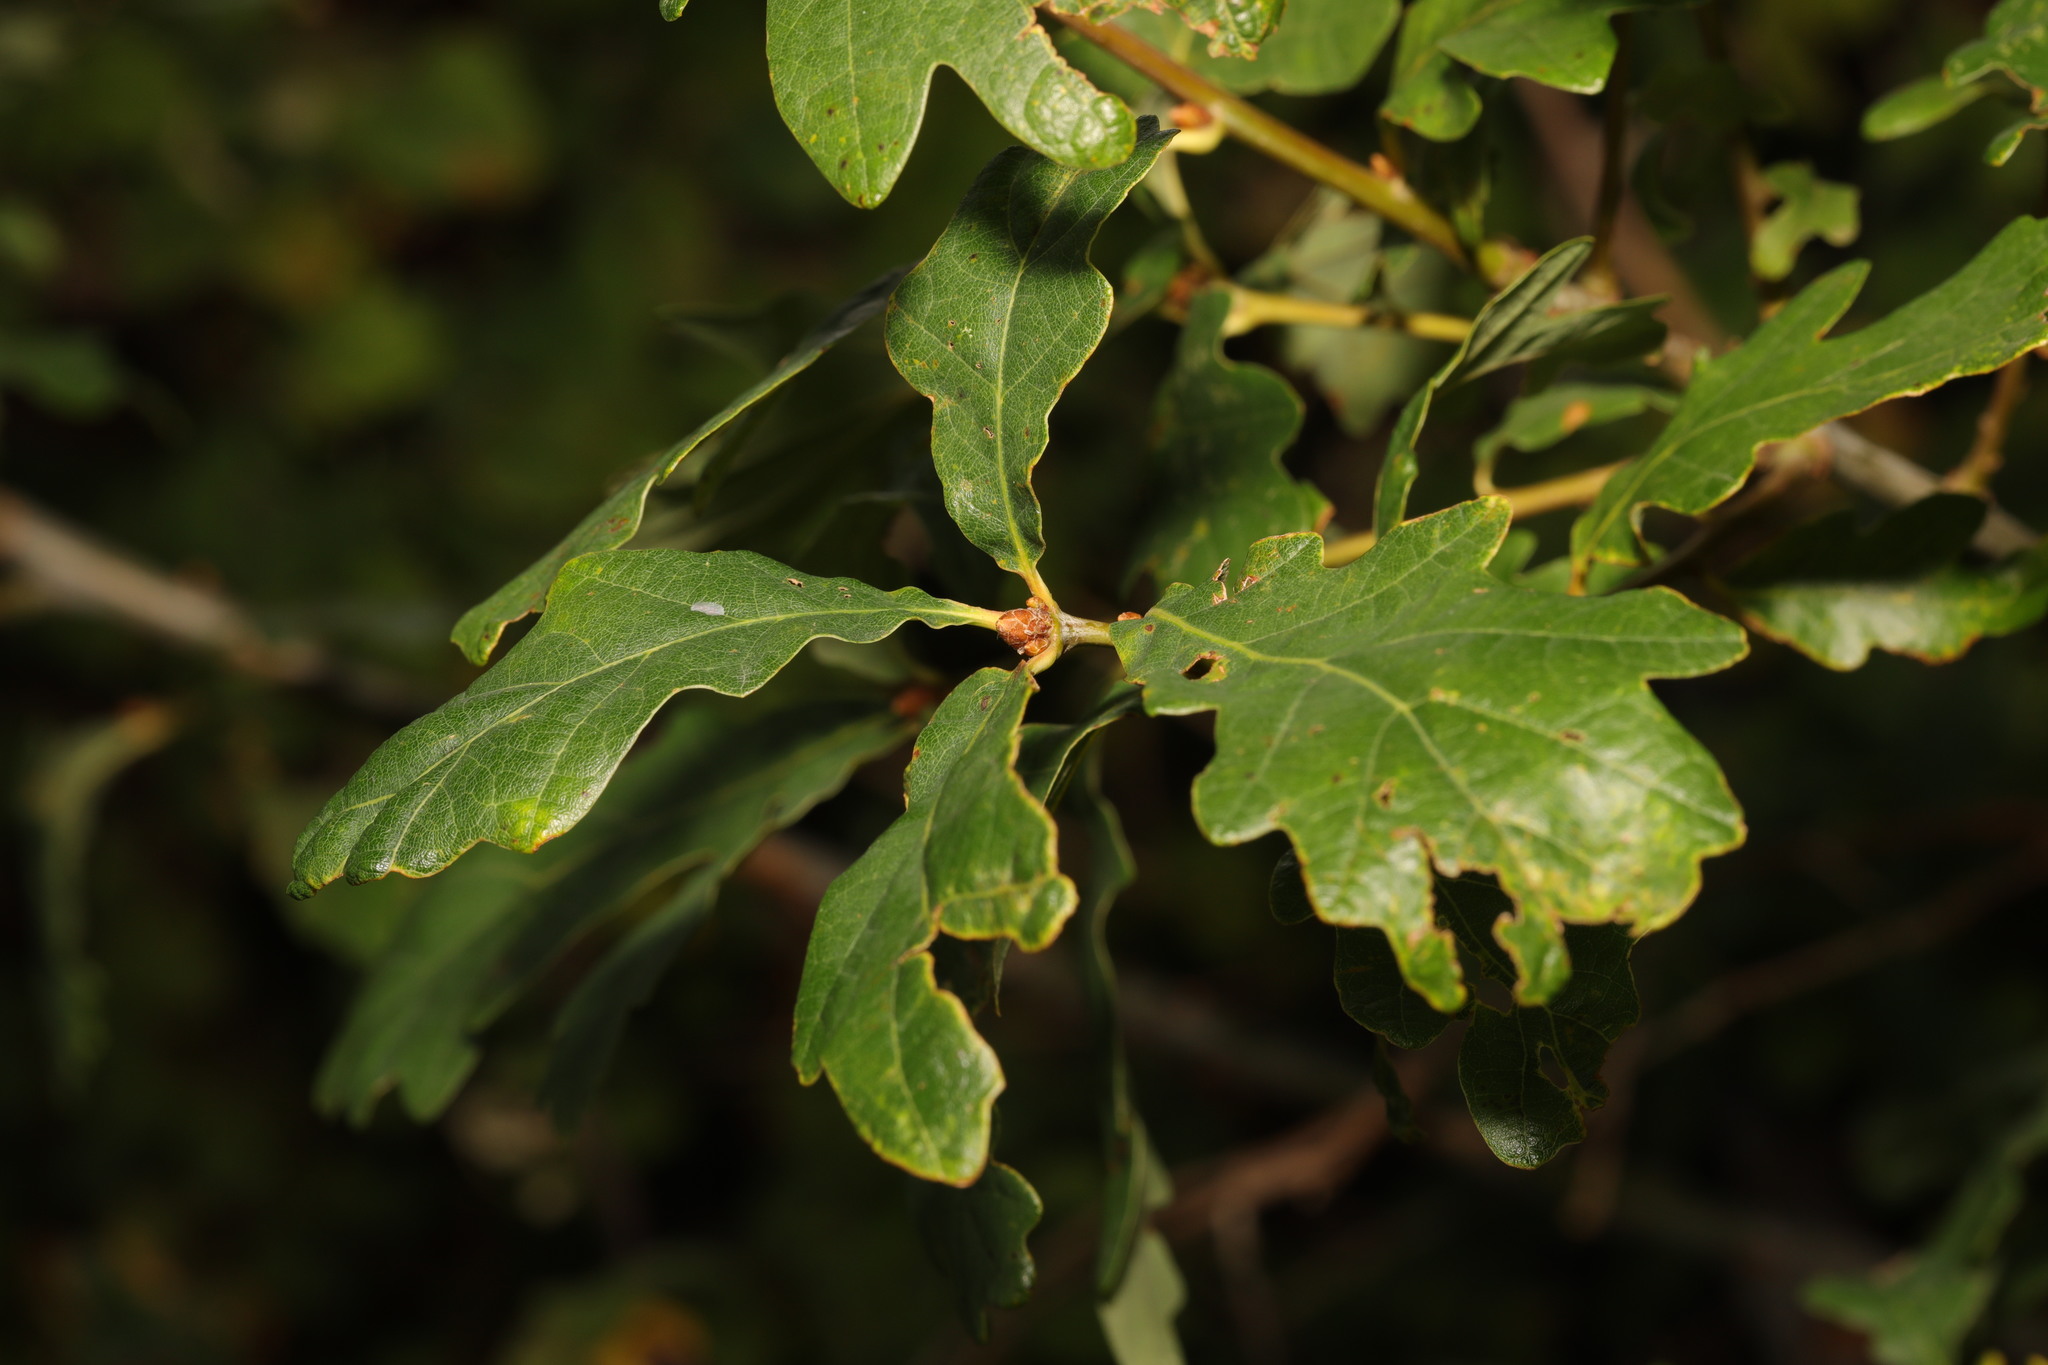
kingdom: Plantae
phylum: Tracheophyta
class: Magnoliopsida
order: Fagales
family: Fagaceae
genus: Quercus
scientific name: Quercus petraea
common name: Sessile oak
